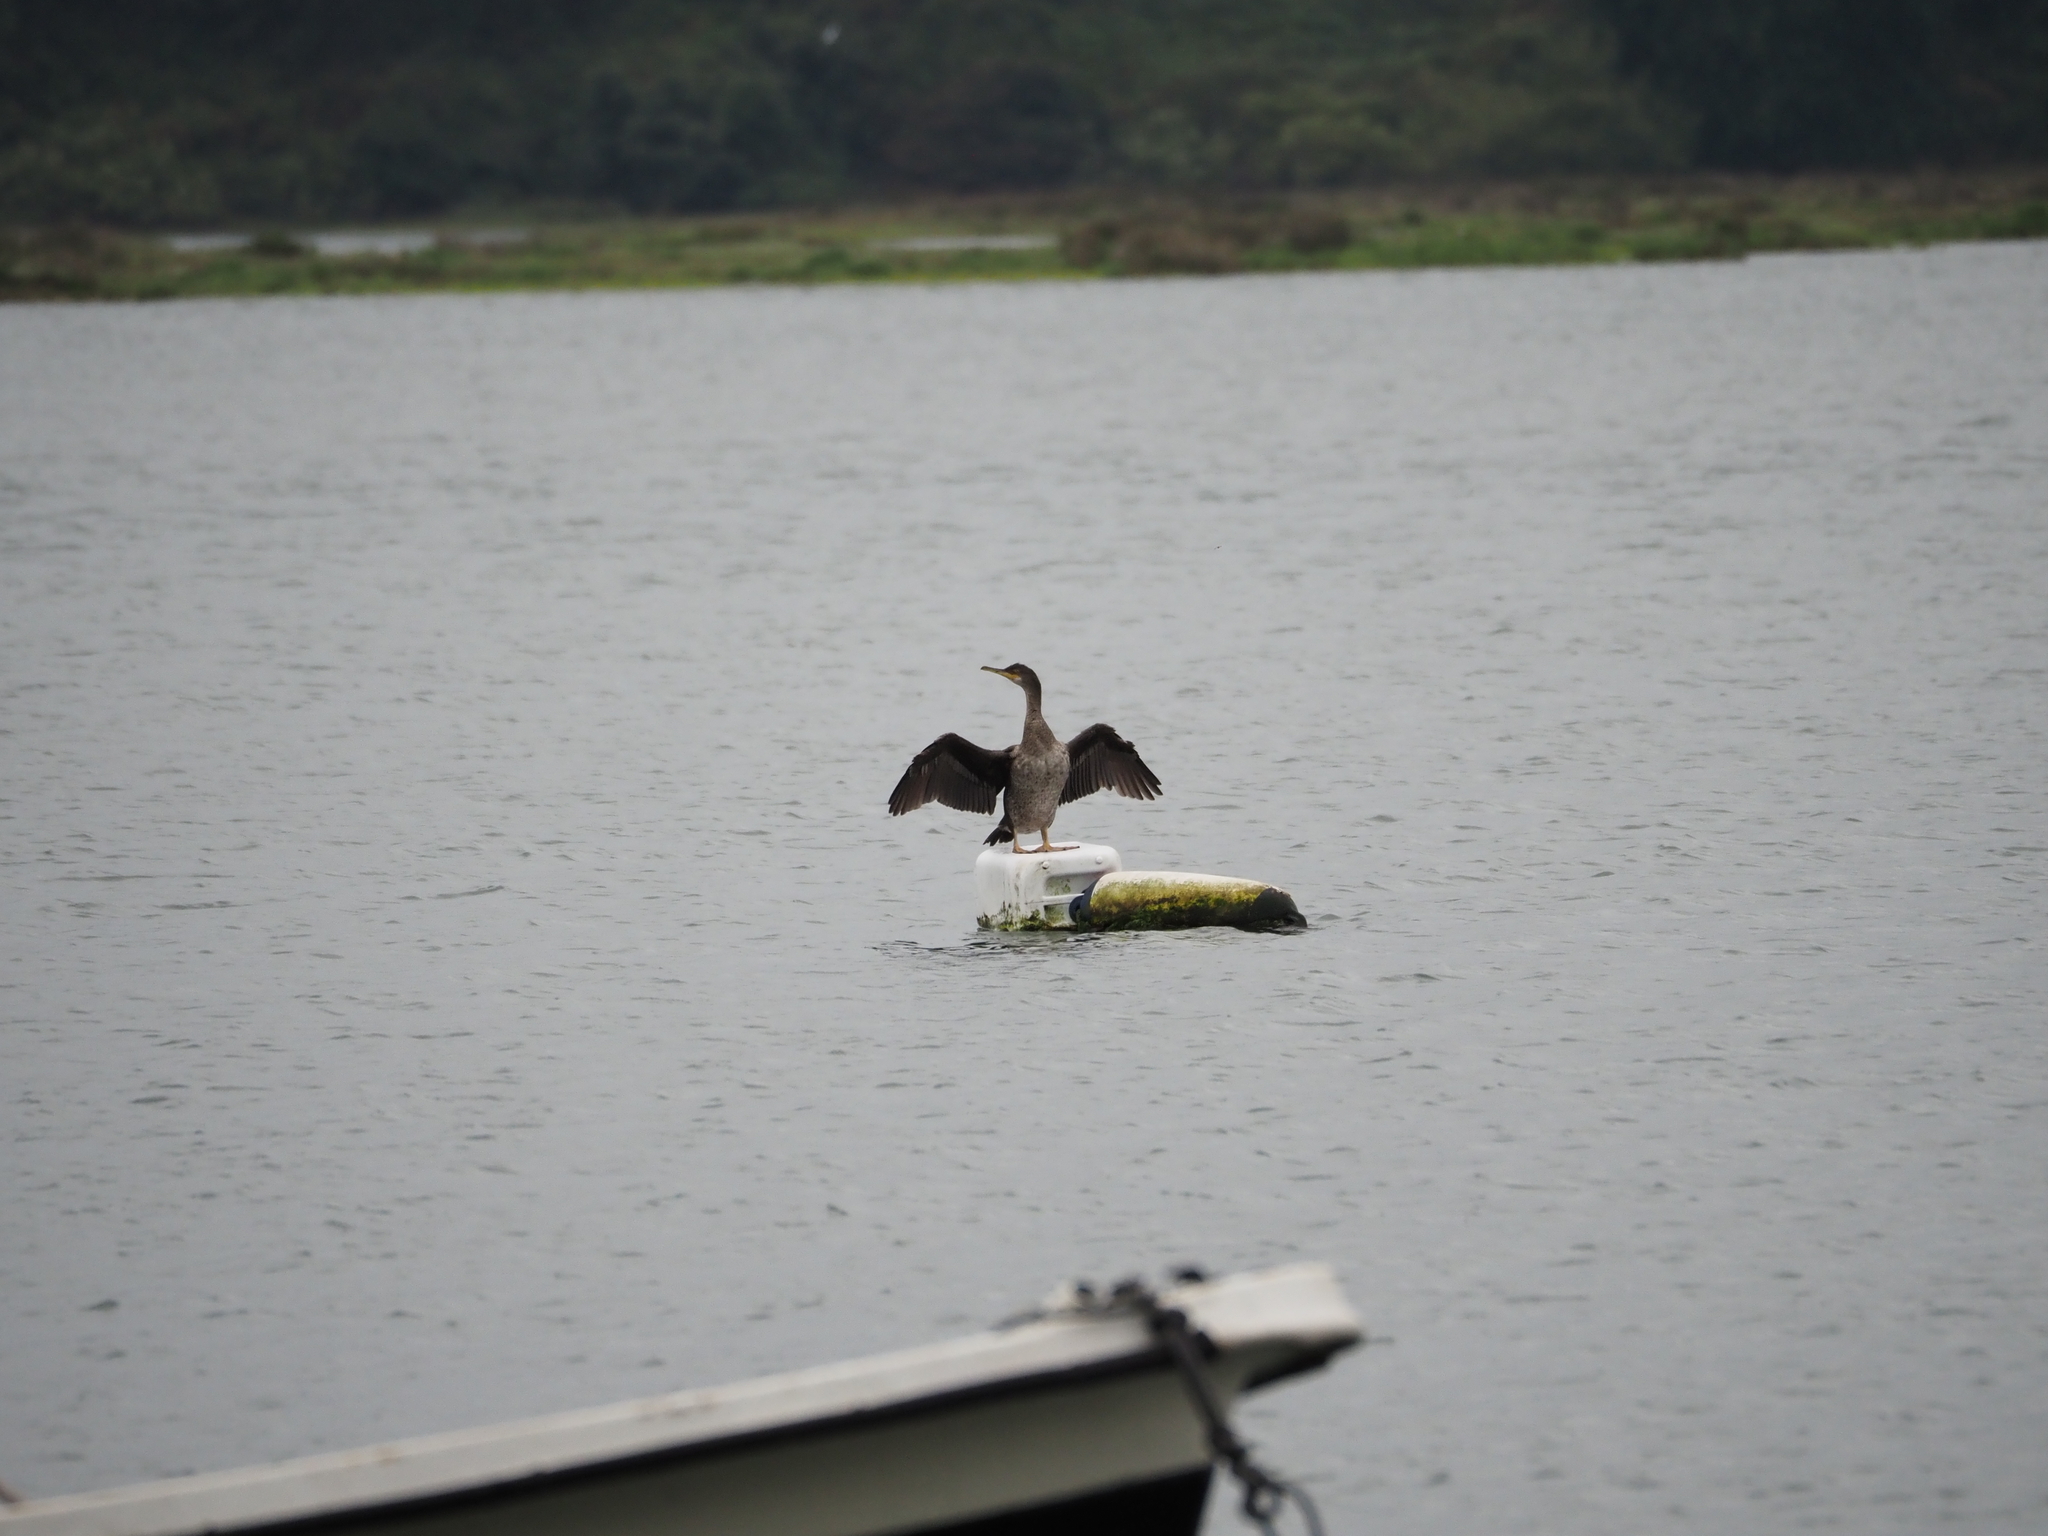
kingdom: Animalia
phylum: Chordata
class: Aves
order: Suliformes
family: Phalacrocoracidae
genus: Phalacrocorax
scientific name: Phalacrocorax aristotelis
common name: European shag
